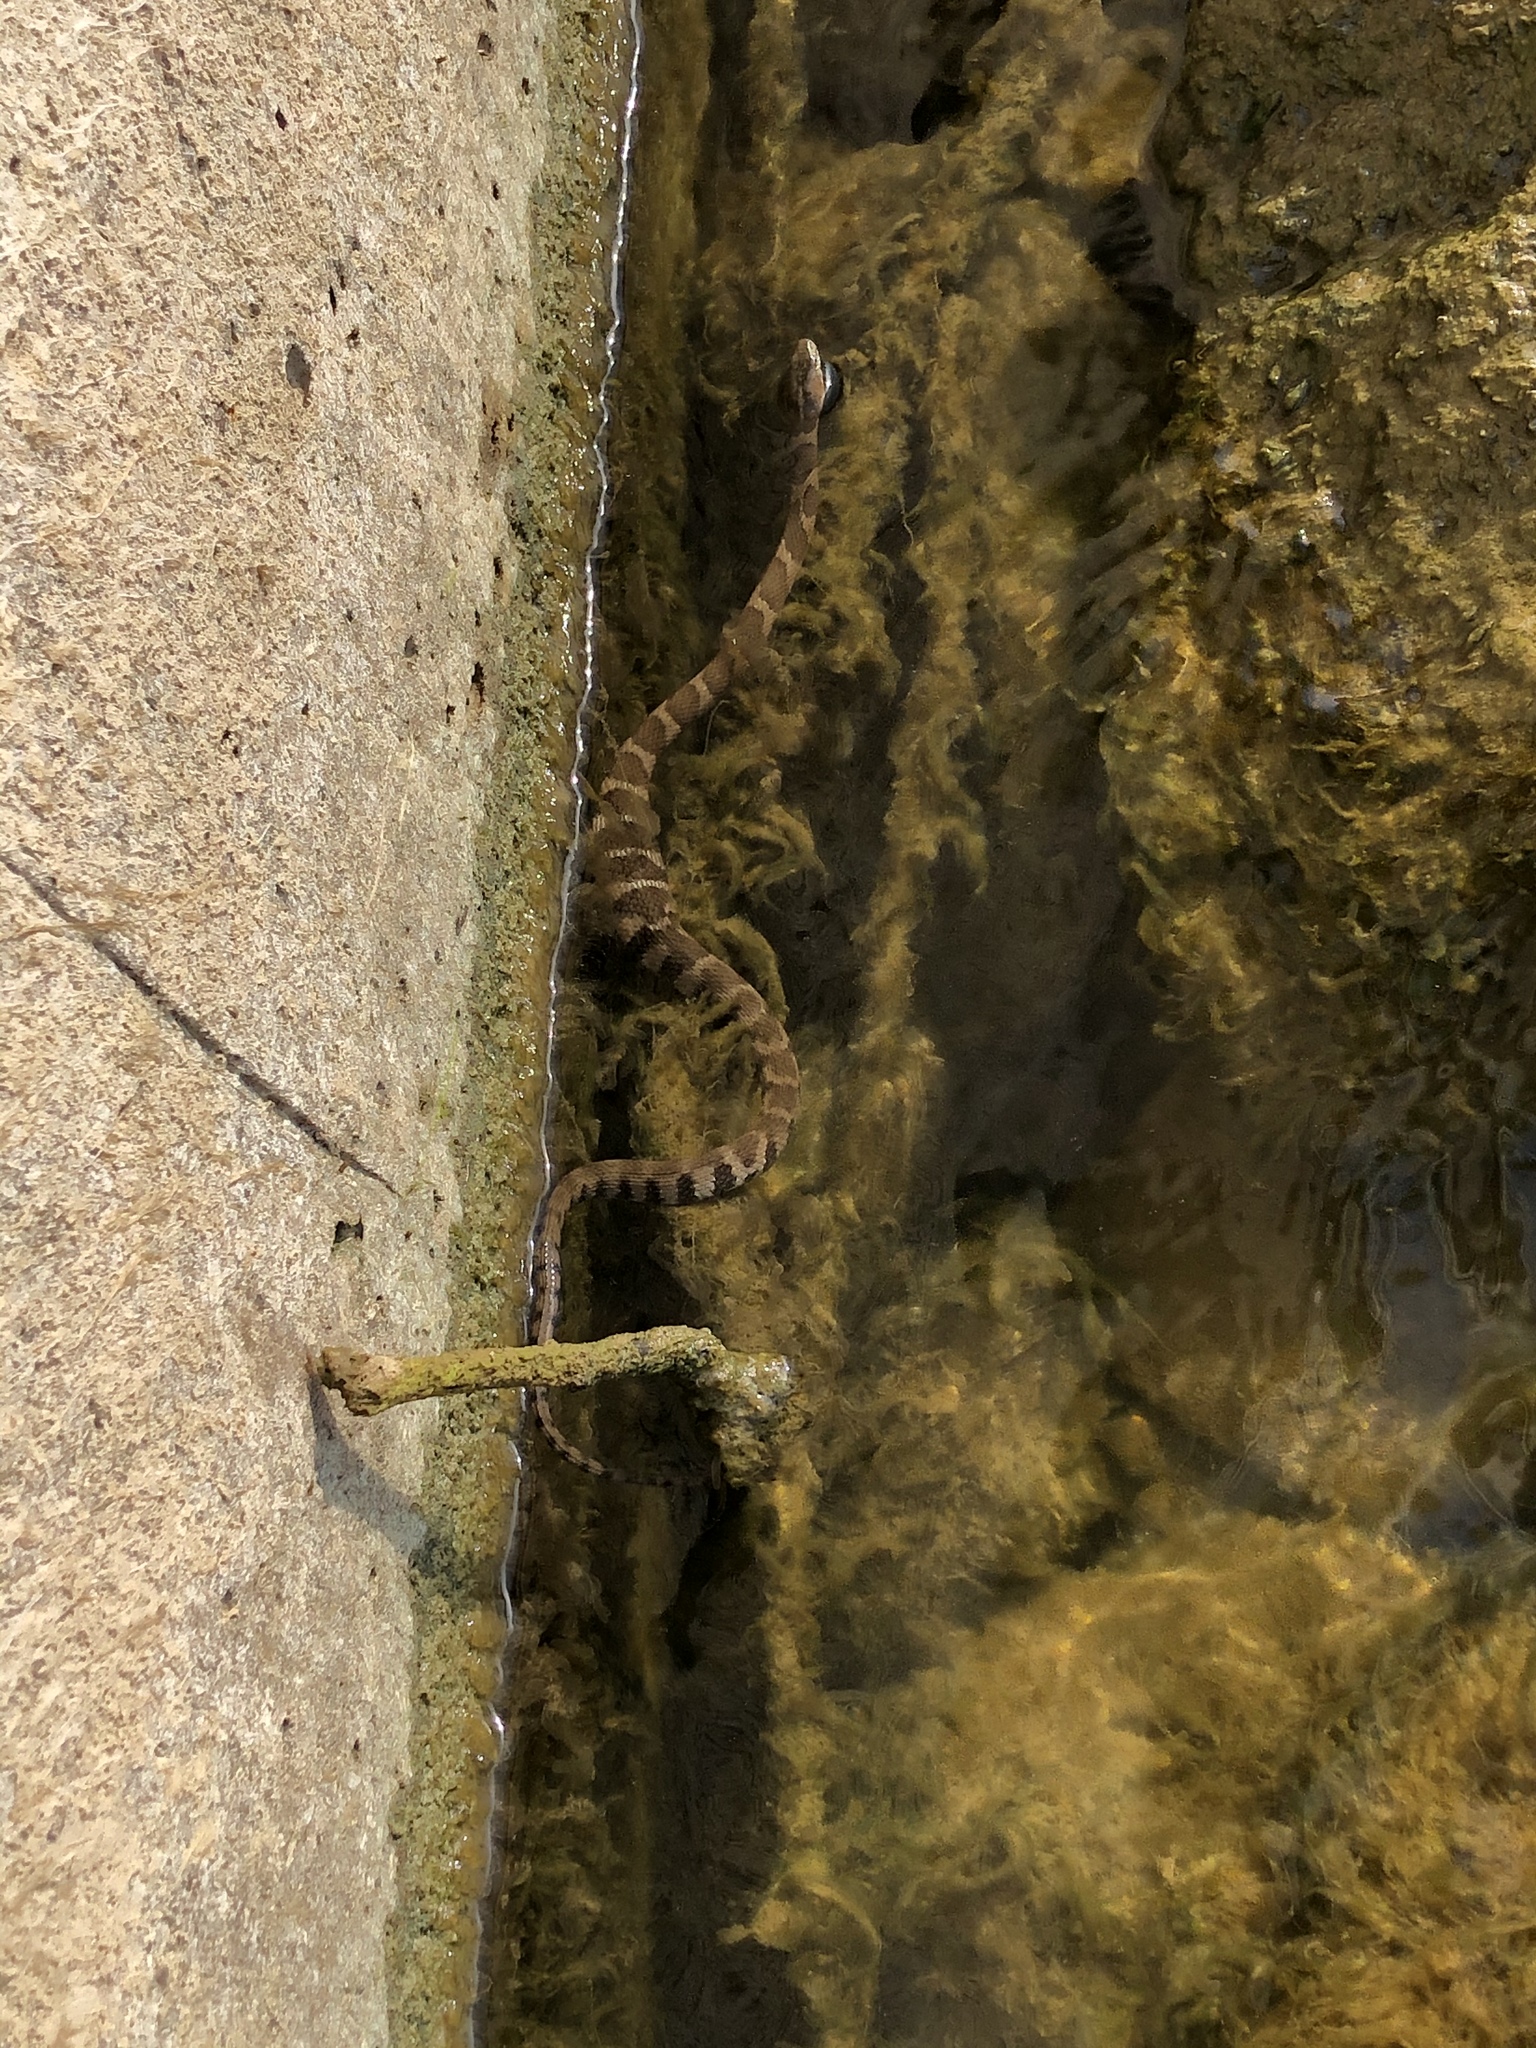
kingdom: Animalia
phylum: Chordata
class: Squamata
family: Colubridae
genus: Nerodia
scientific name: Nerodia sipedon
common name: Northern water snake
